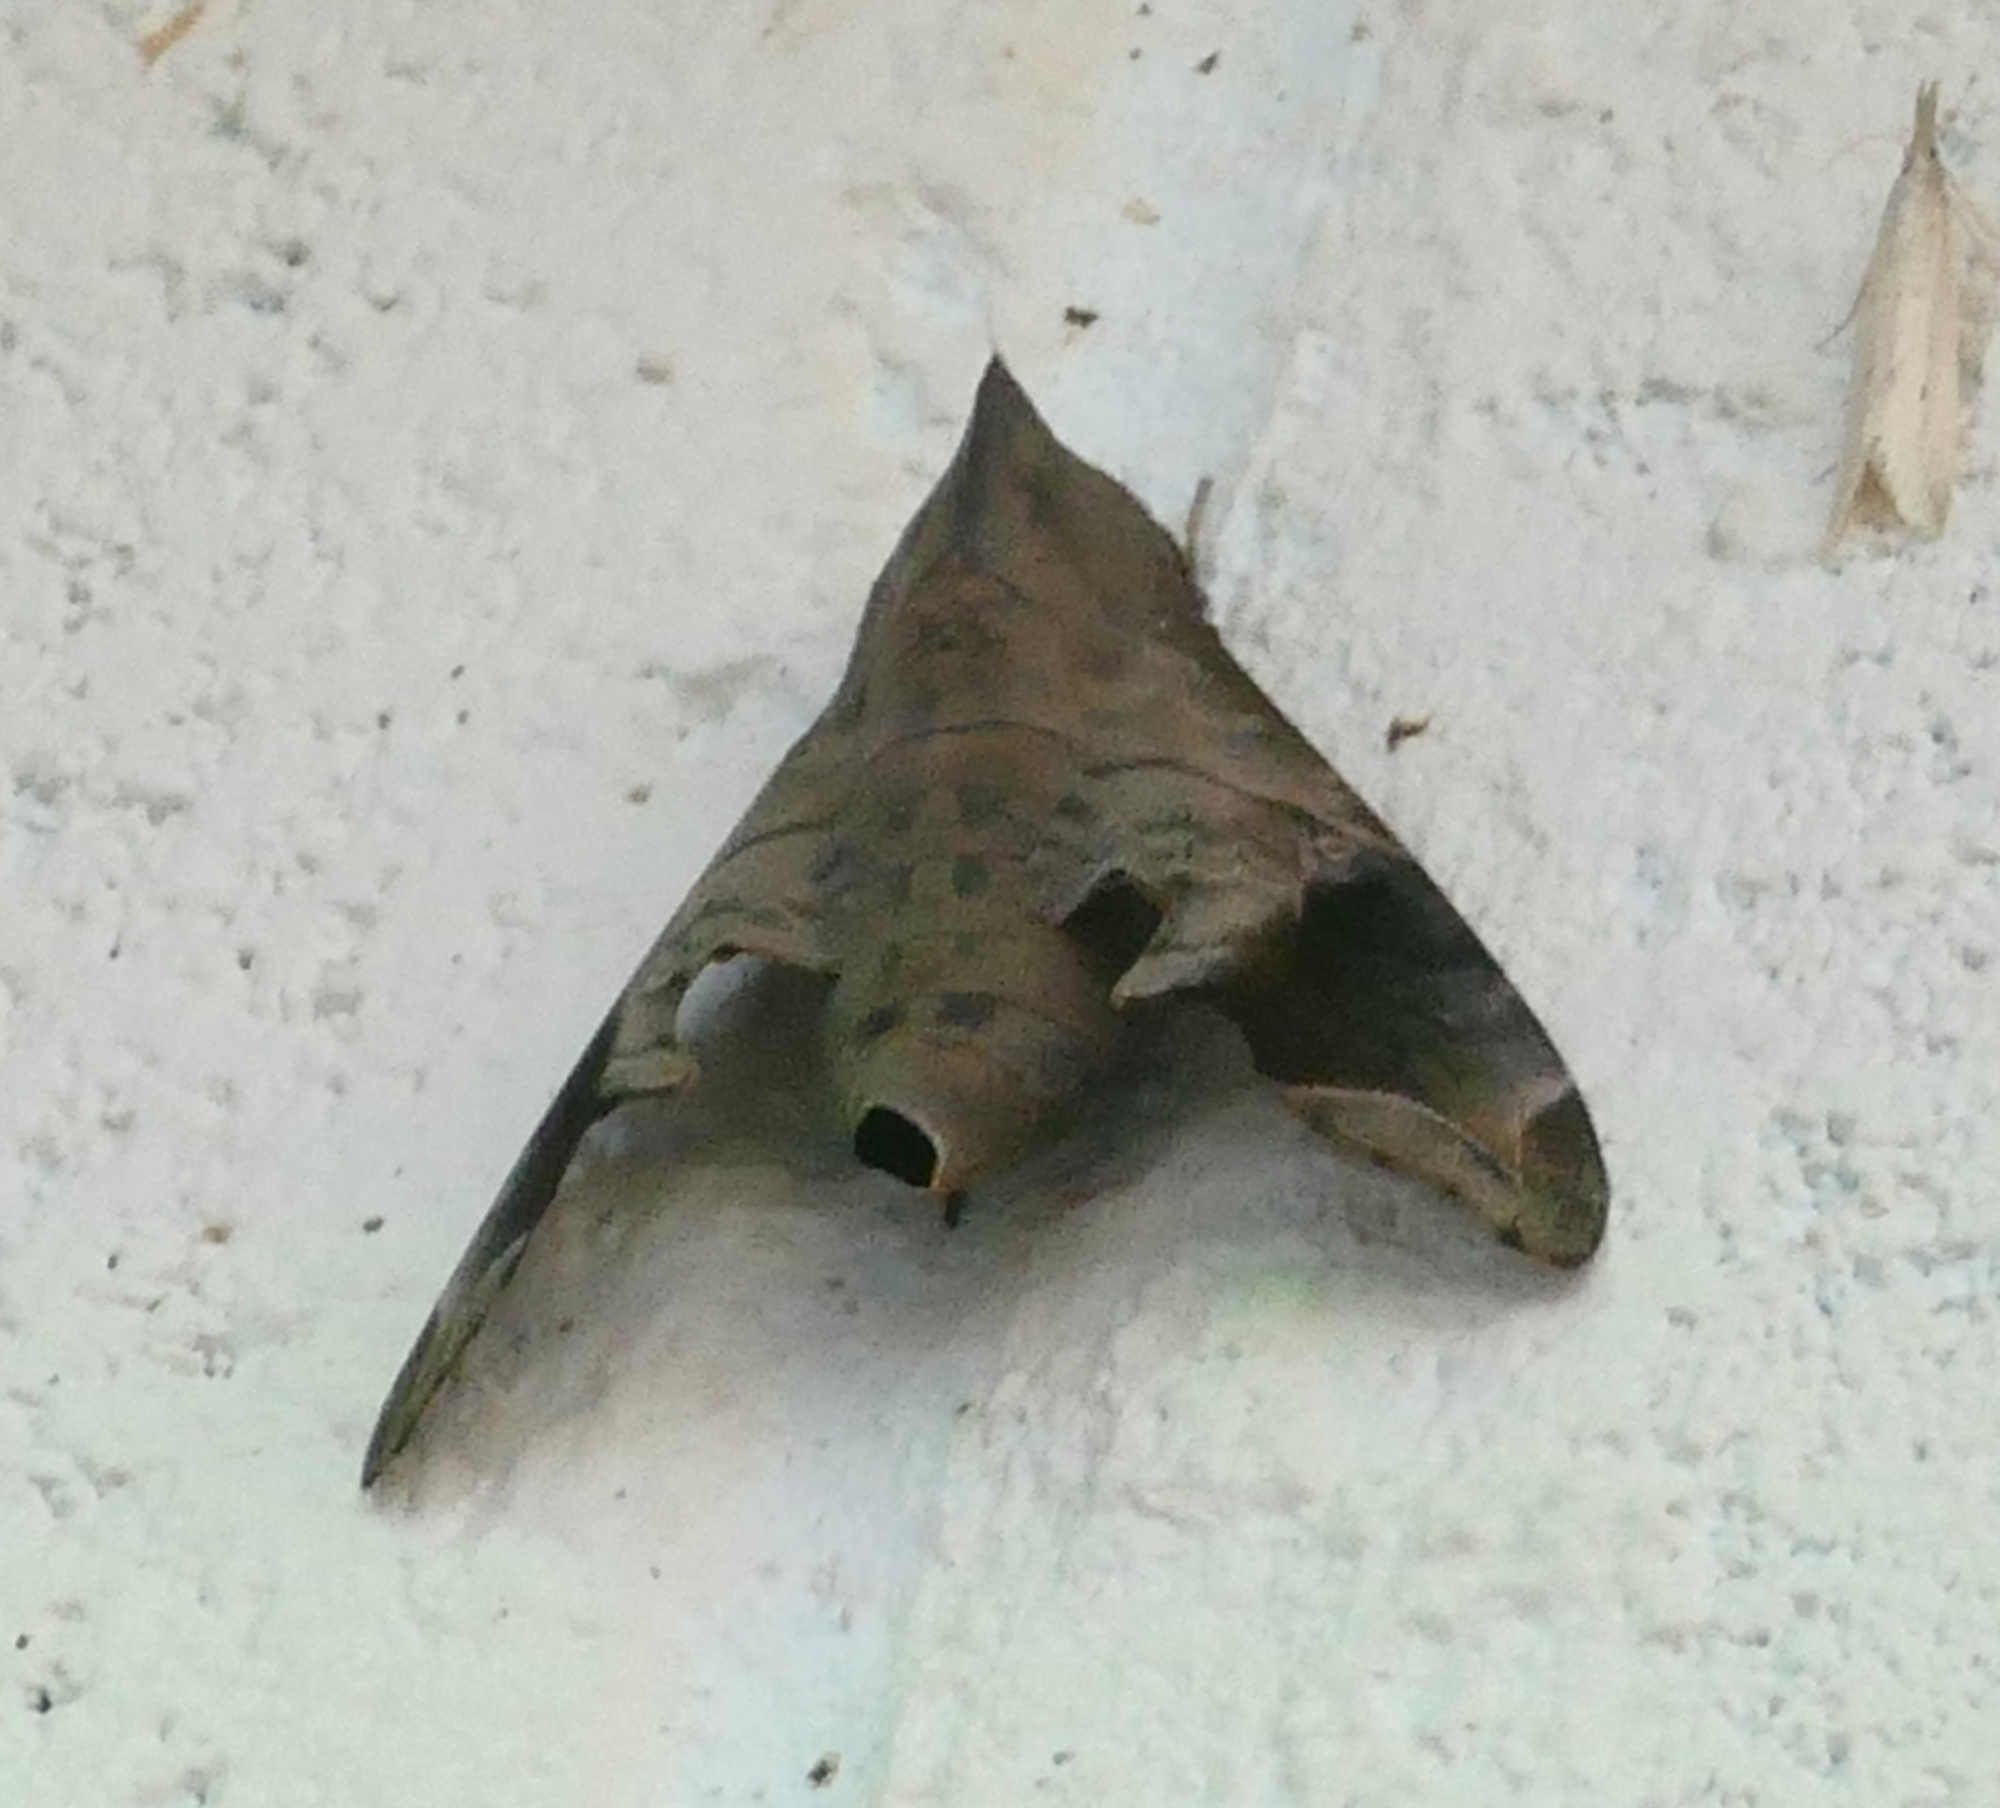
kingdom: Animalia
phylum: Arthropoda
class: Insecta
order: Lepidoptera
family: Sphingidae
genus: Enyo
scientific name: Enyo lugubris
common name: Mournful sphinx
